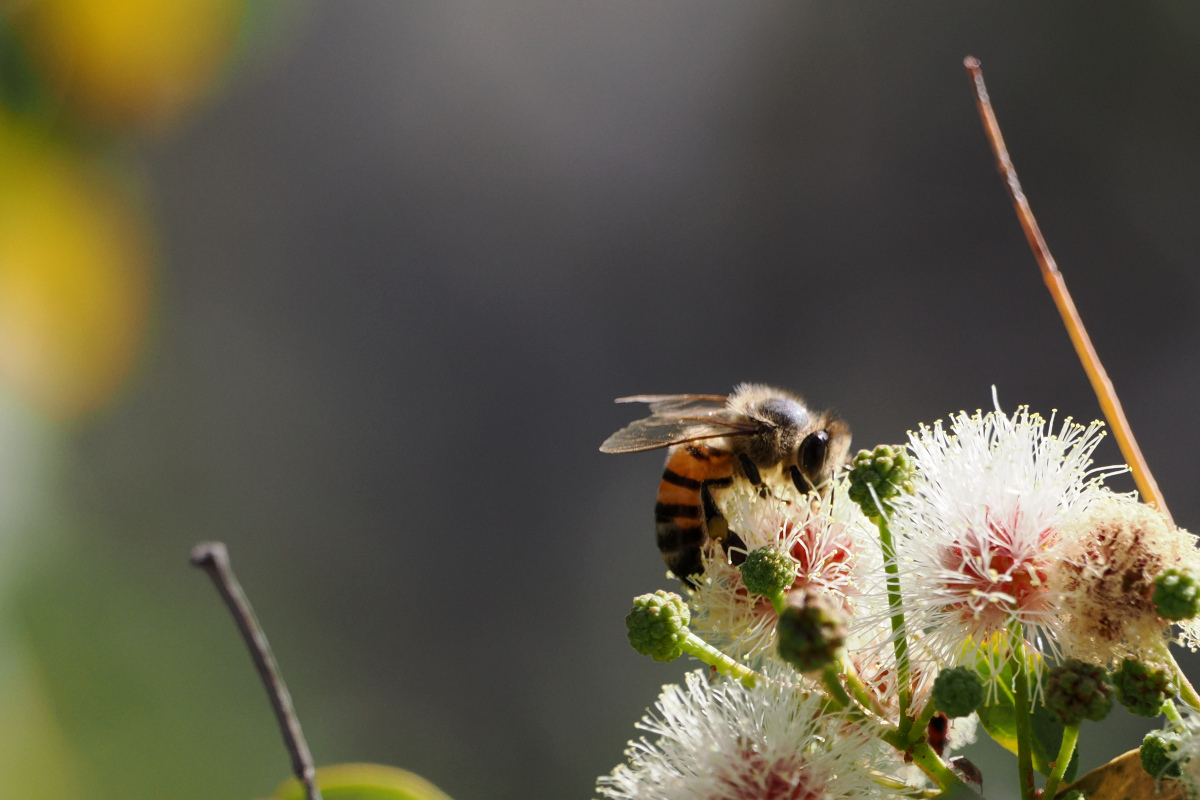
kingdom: Animalia
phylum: Arthropoda
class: Insecta
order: Hymenoptera
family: Apidae
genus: Apis
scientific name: Apis mellifera
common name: Honey bee
